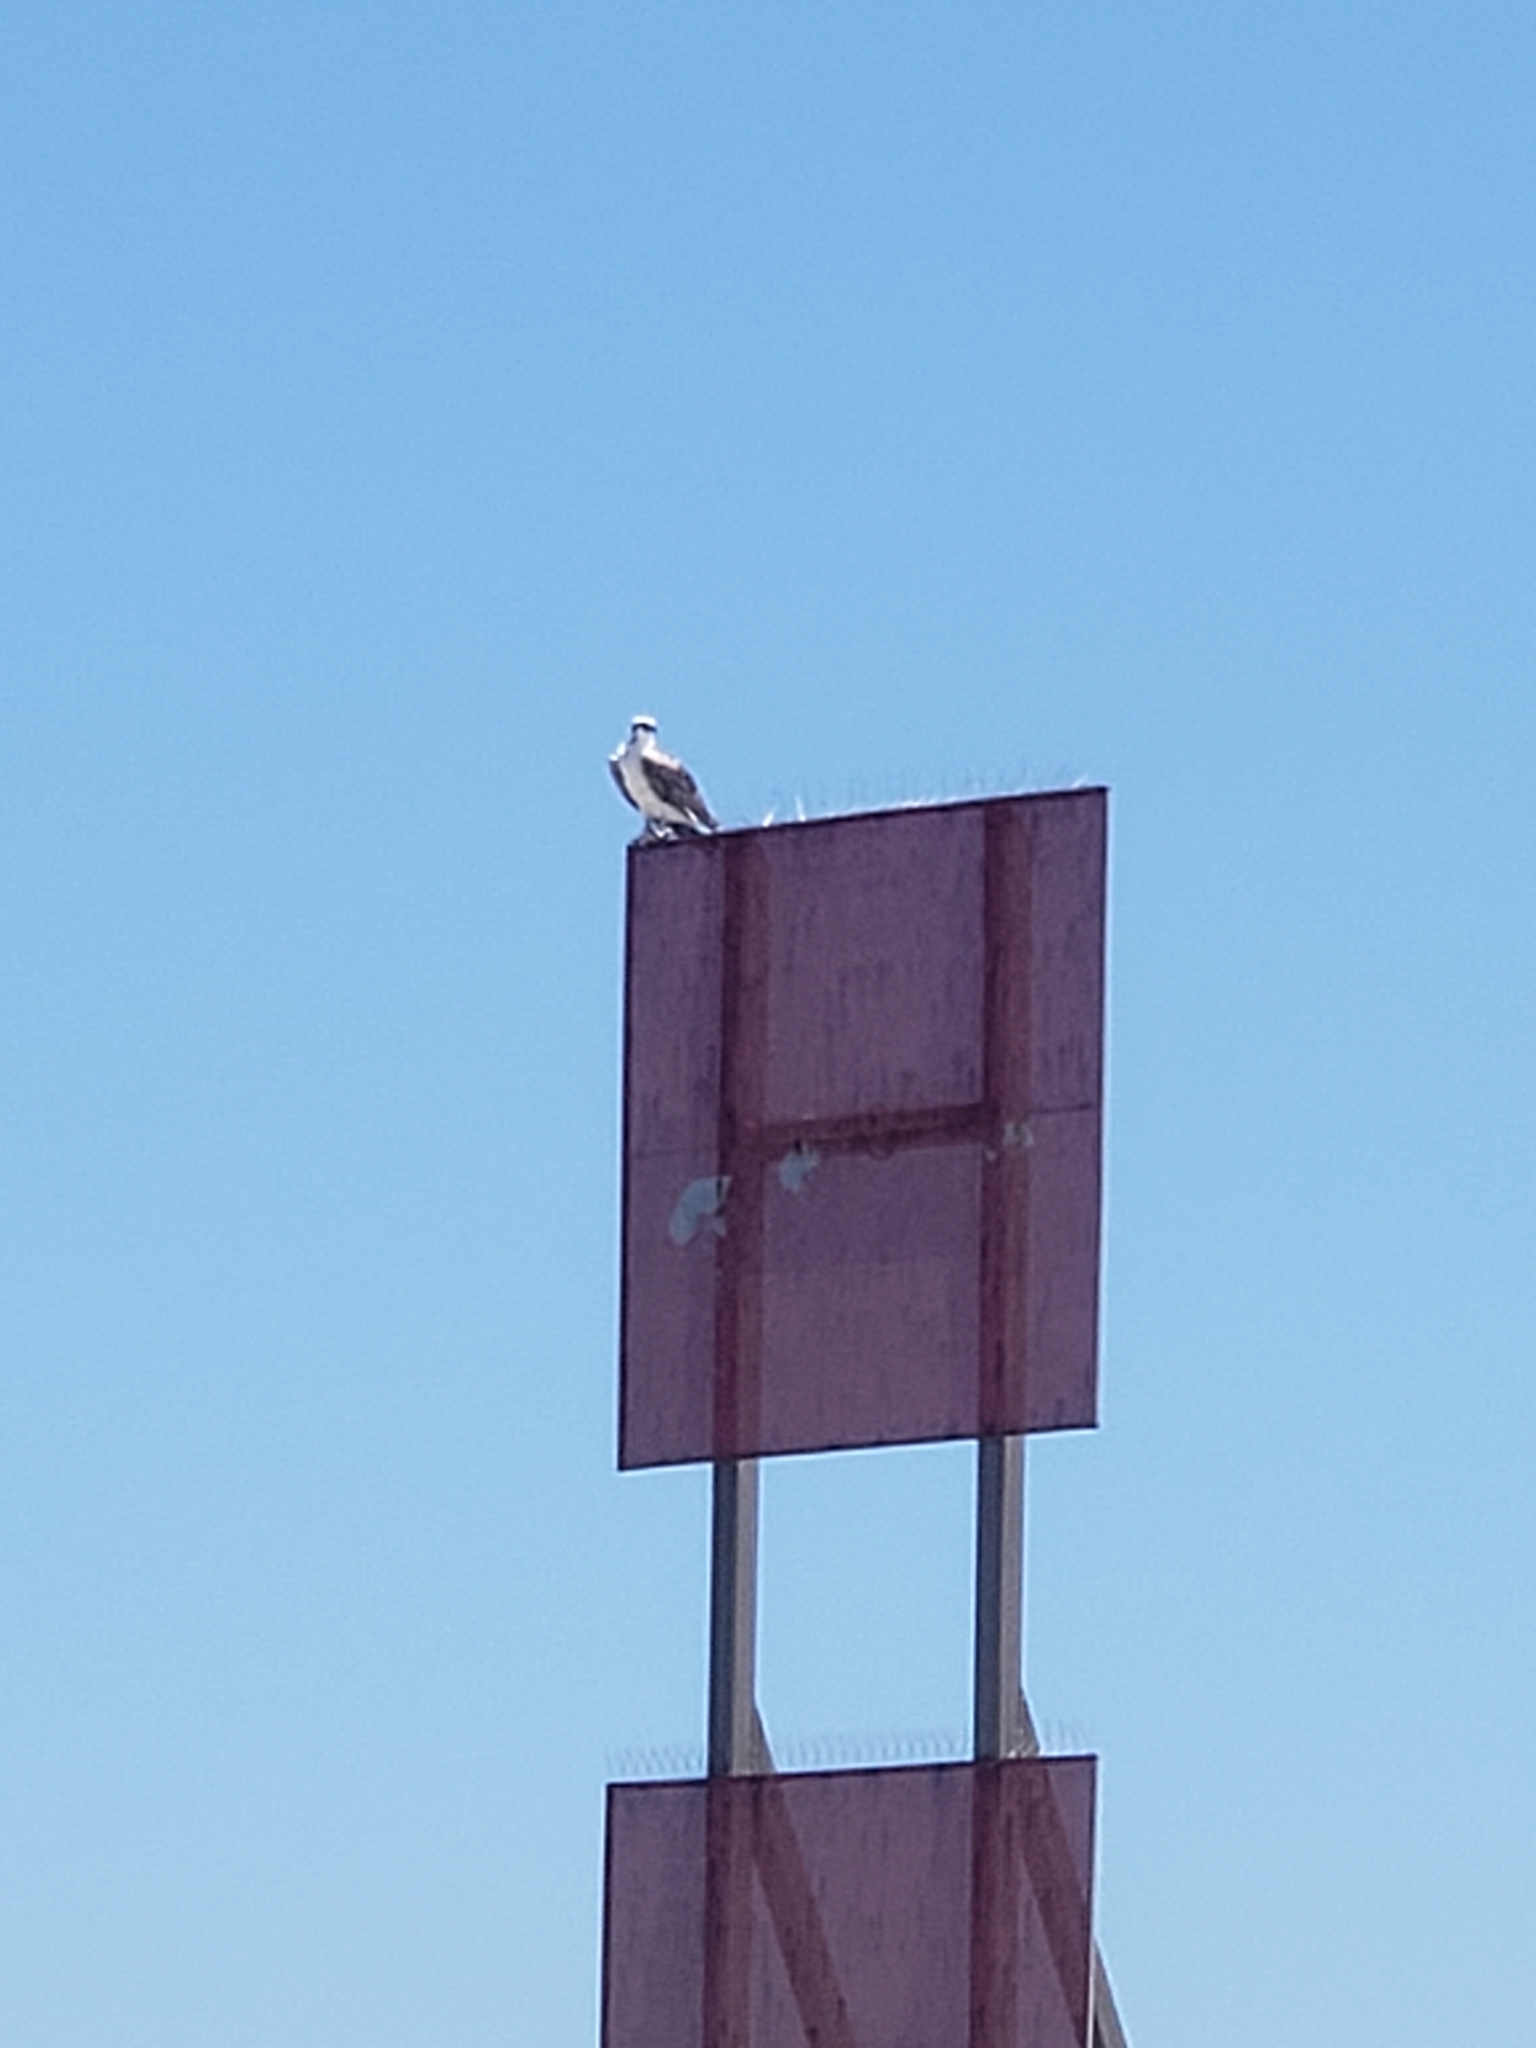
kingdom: Animalia
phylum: Chordata
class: Aves
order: Accipitriformes
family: Pandionidae
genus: Pandion
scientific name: Pandion haliaetus
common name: Osprey
